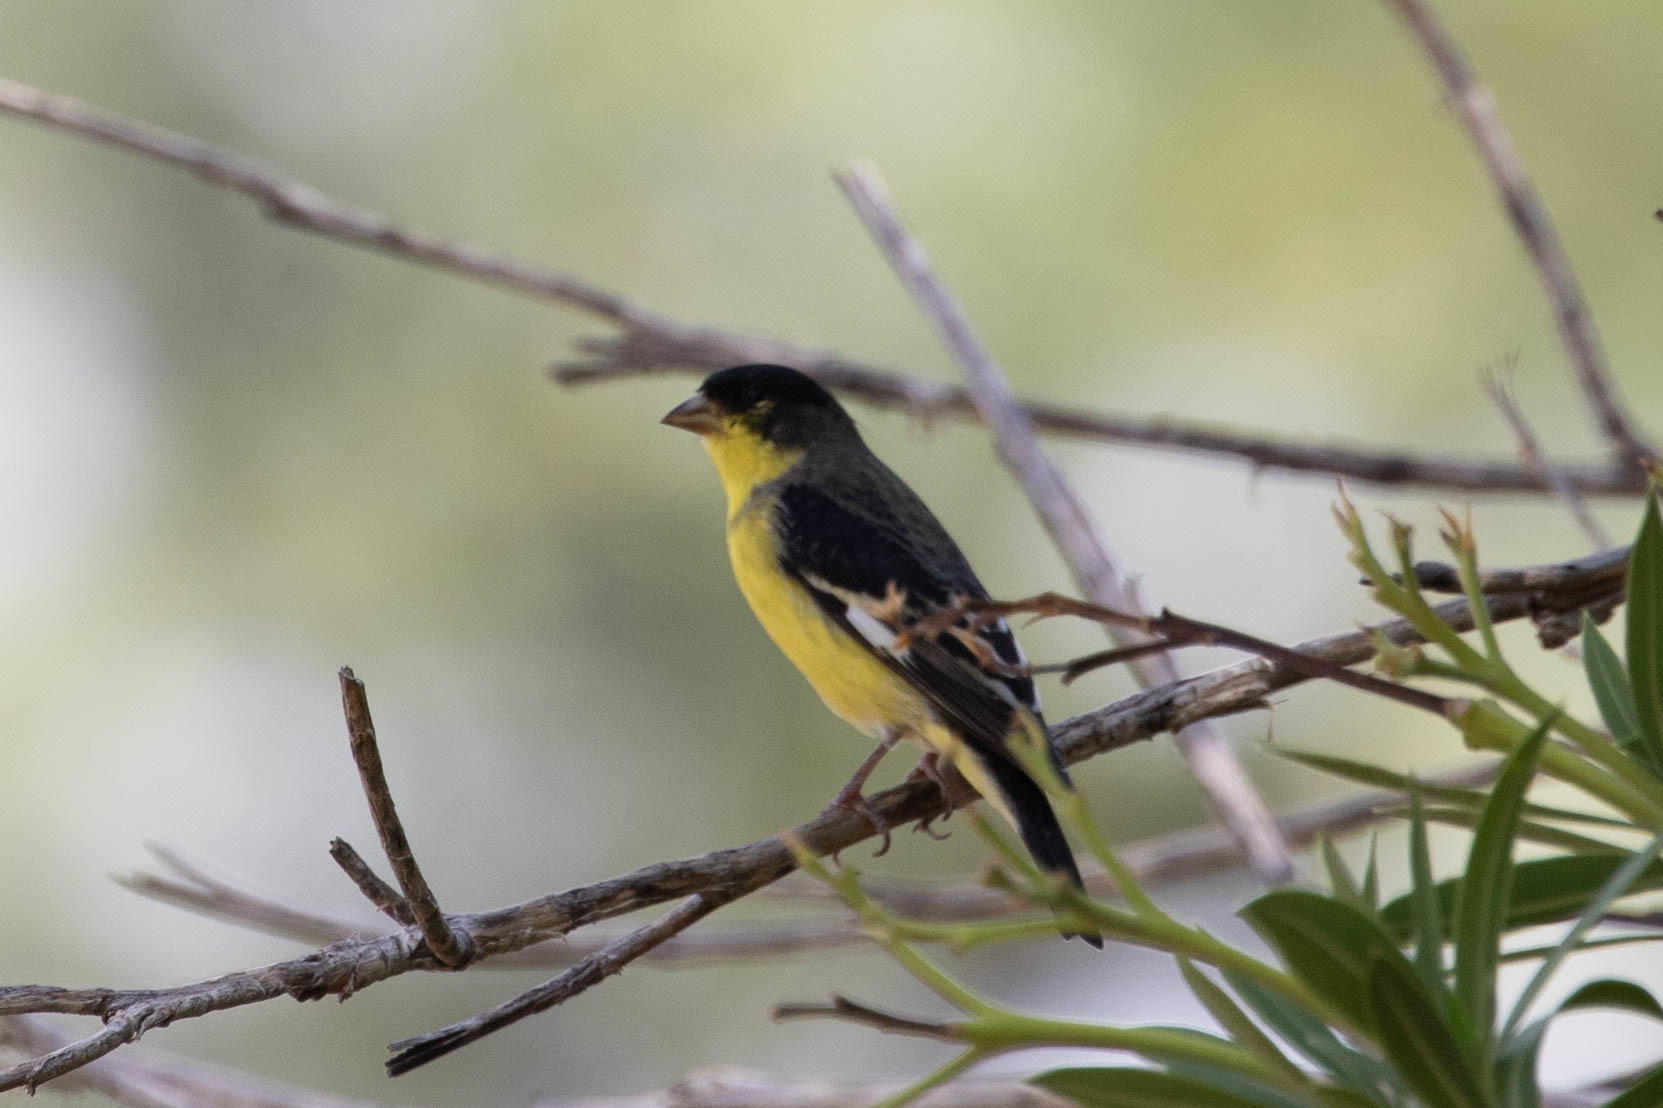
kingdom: Animalia
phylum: Chordata
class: Aves
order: Passeriformes
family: Fringillidae
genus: Spinus
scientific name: Spinus psaltria
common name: Lesser goldfinch
